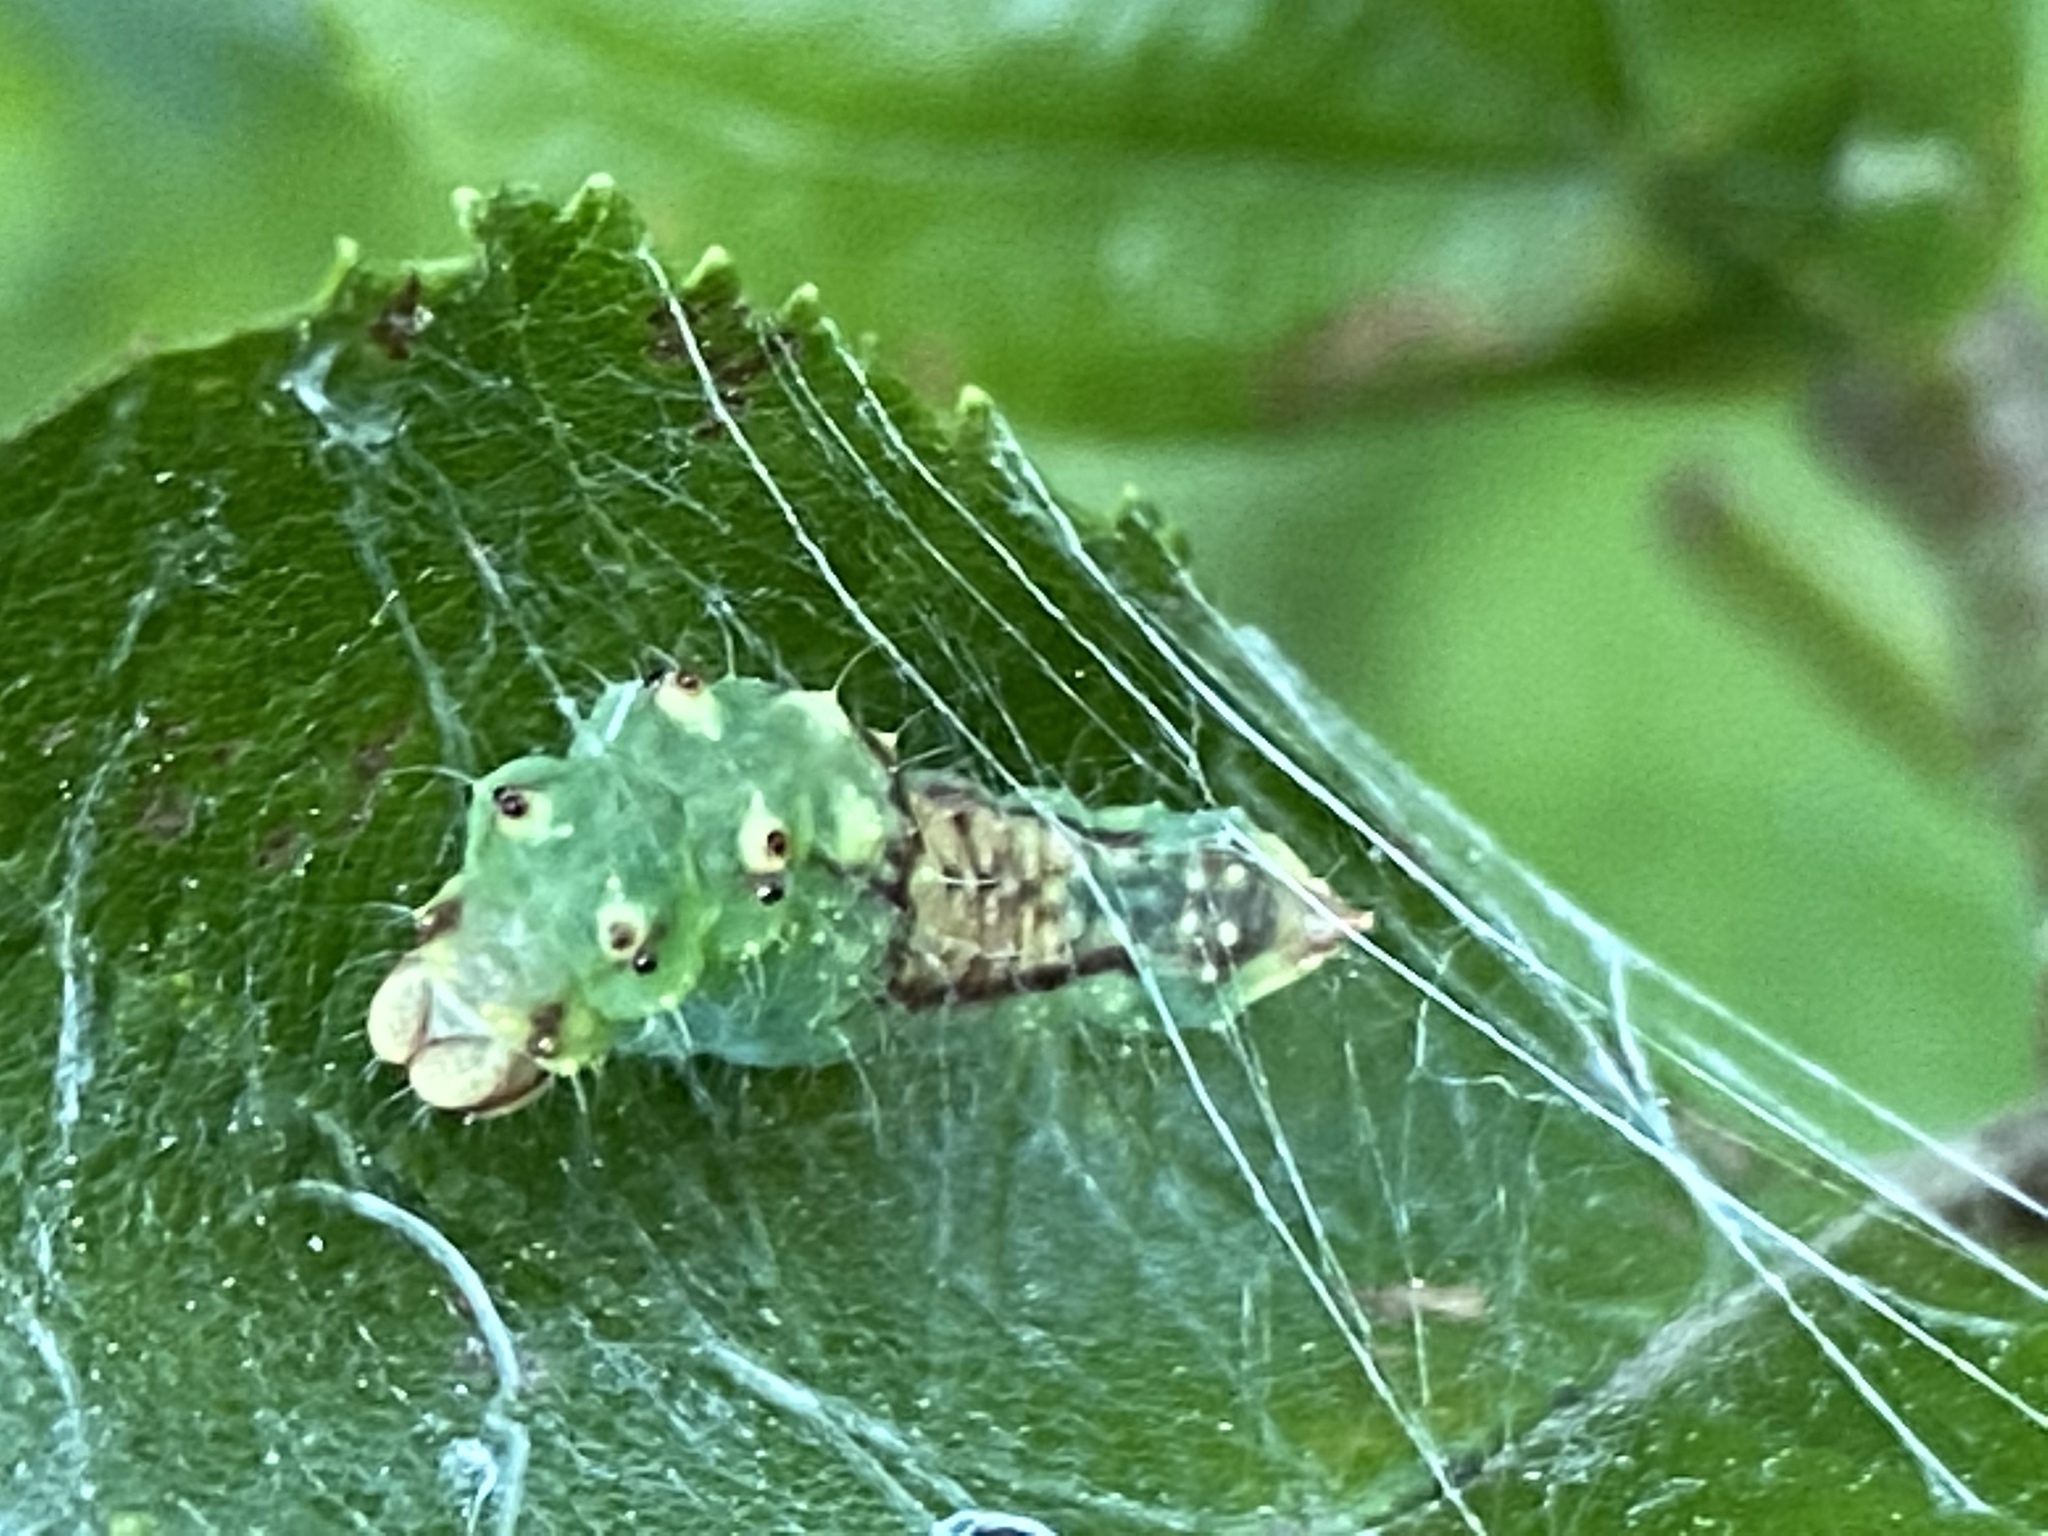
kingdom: Animalia
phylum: Arthropoda
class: Insecta
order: Lepidoptera
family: Drepanidae
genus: Drepana
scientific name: Drepana arcuata
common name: Arched hooktip moth
